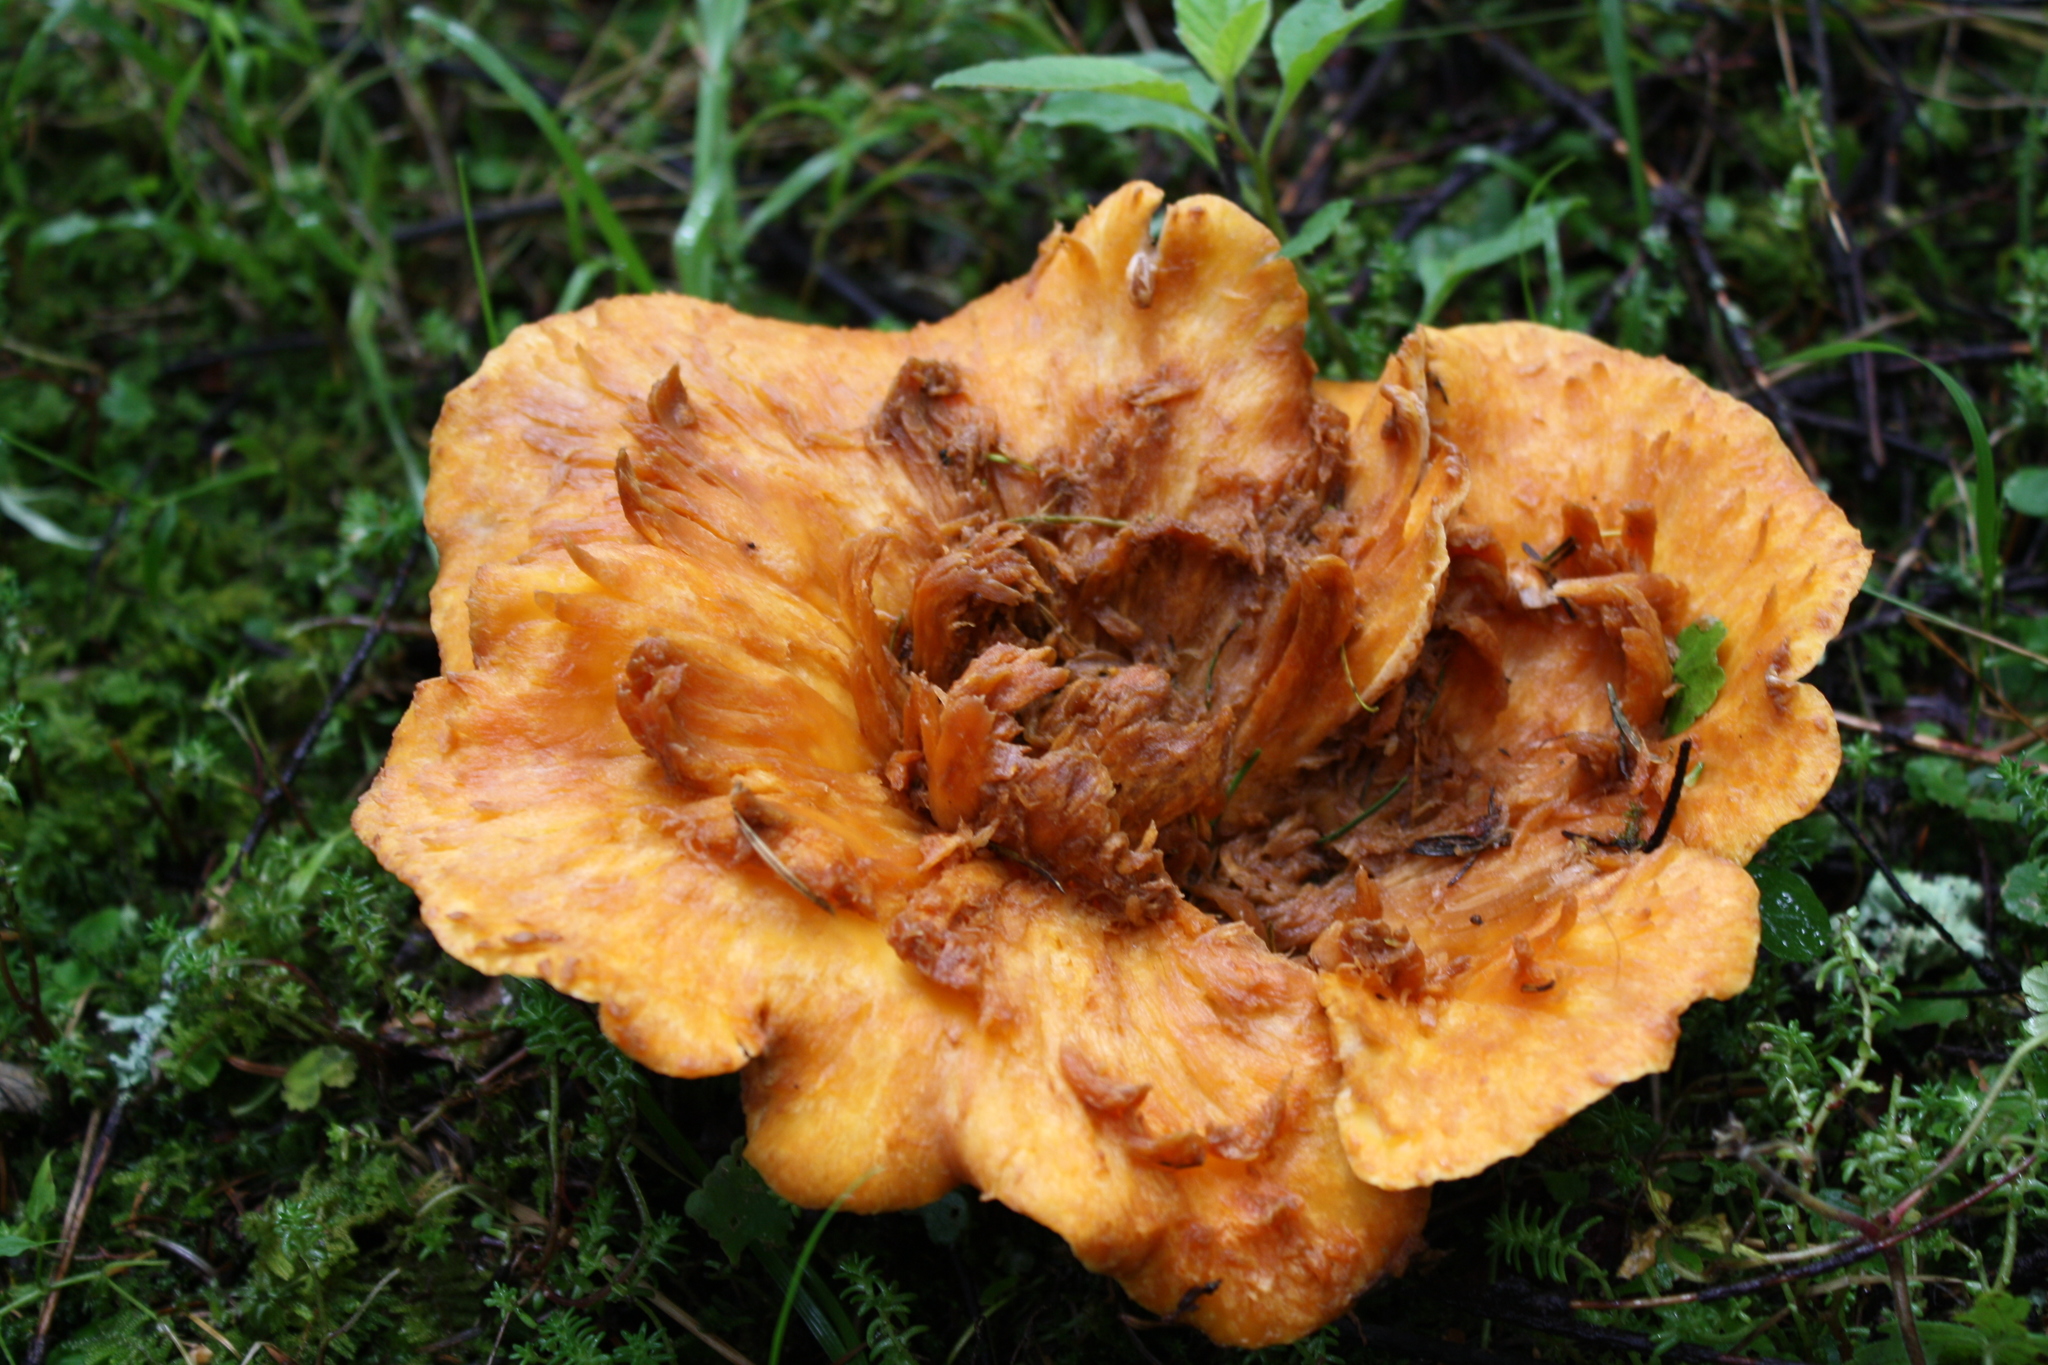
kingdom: Fungi
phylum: Basidiomycota
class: Agaricomycetes
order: Gomphales
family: Gomphaceae
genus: Turbinellus
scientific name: Turbinellus floccosus
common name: Scaly chanterelle
